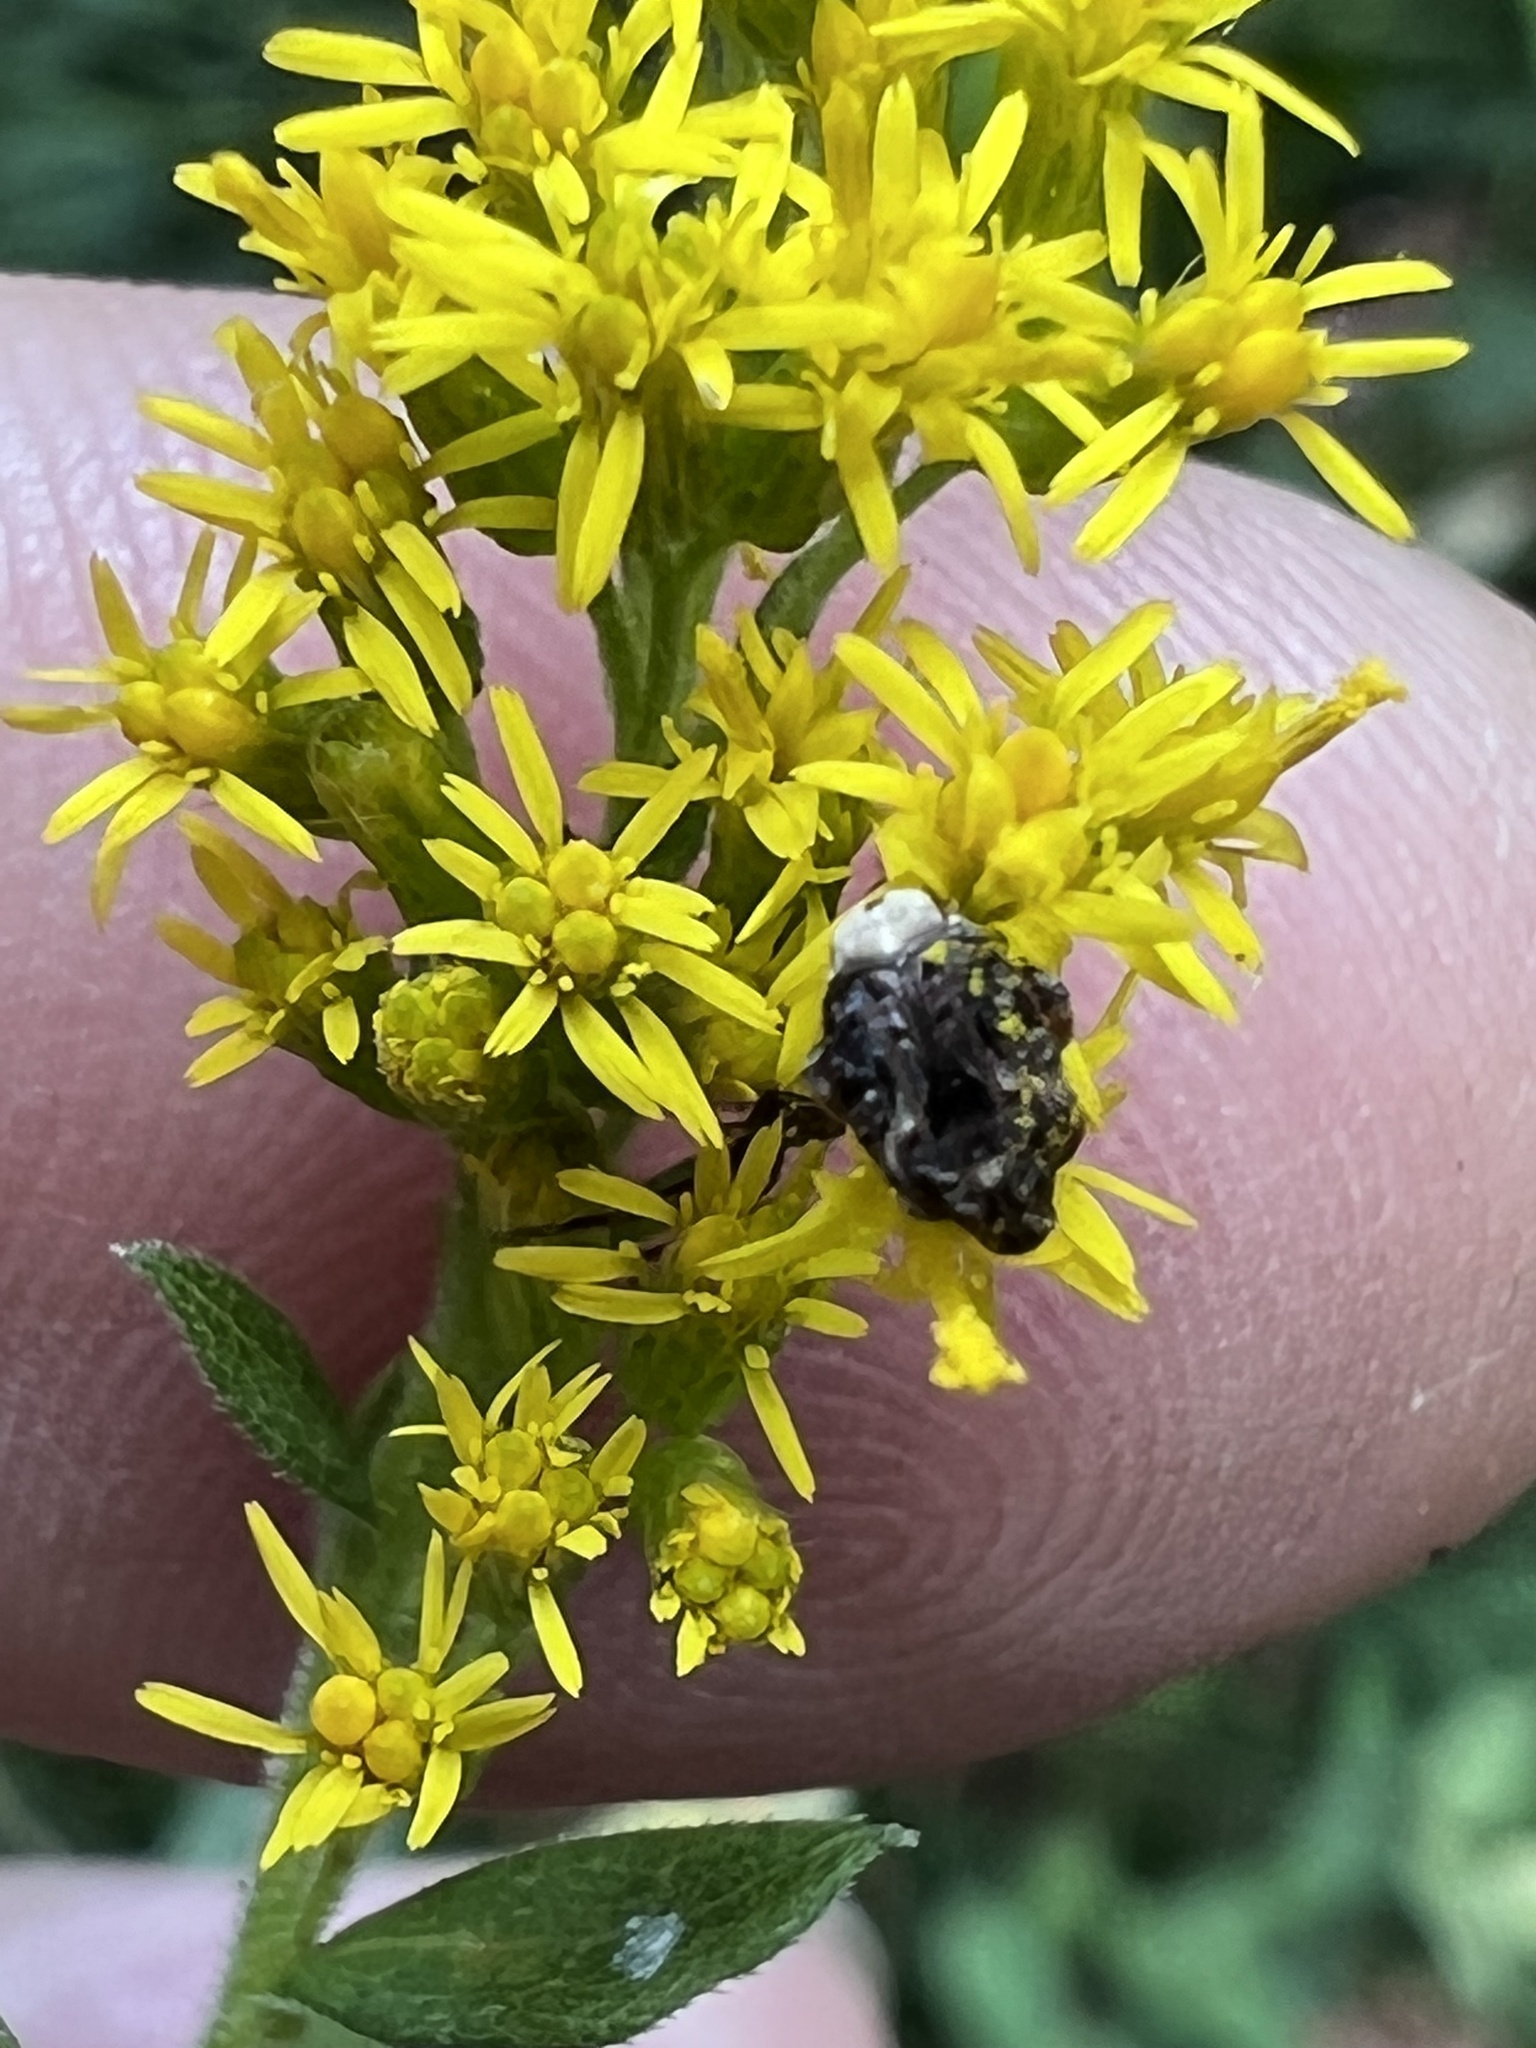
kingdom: Animalia
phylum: Arthropoda
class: Insecta
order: Coleoptera
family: Chrysomelidae
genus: Gibbobruchus
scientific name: Gibbobruchus mimus
